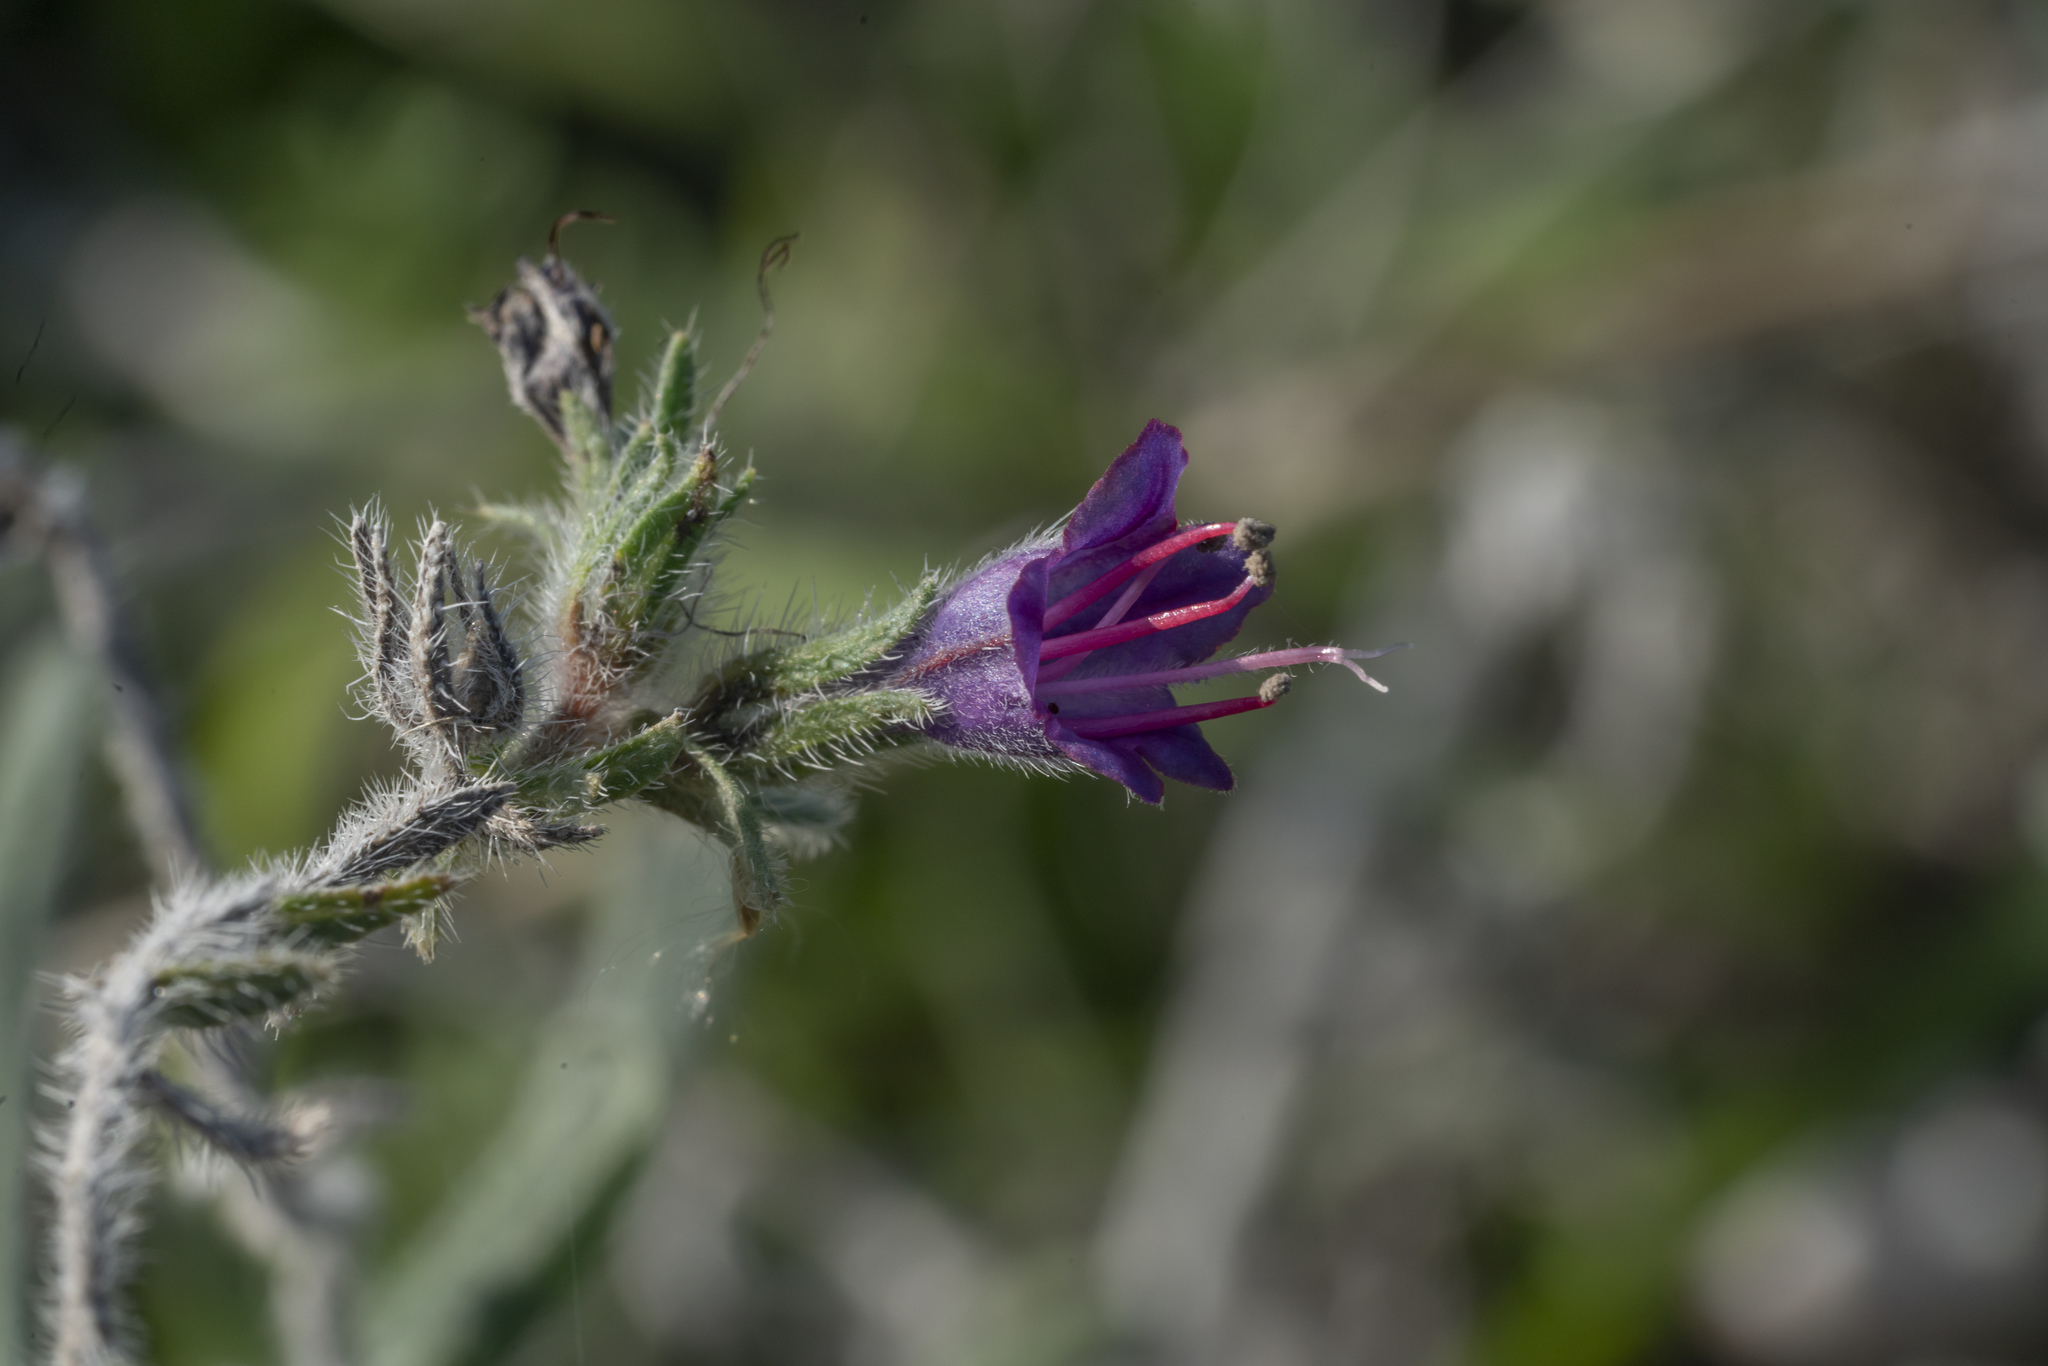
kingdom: Plantae
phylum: Tracheophyta
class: Magnoliopsida
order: Boraginales
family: Boraginaceae
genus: Echium
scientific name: Echium angustifolium
